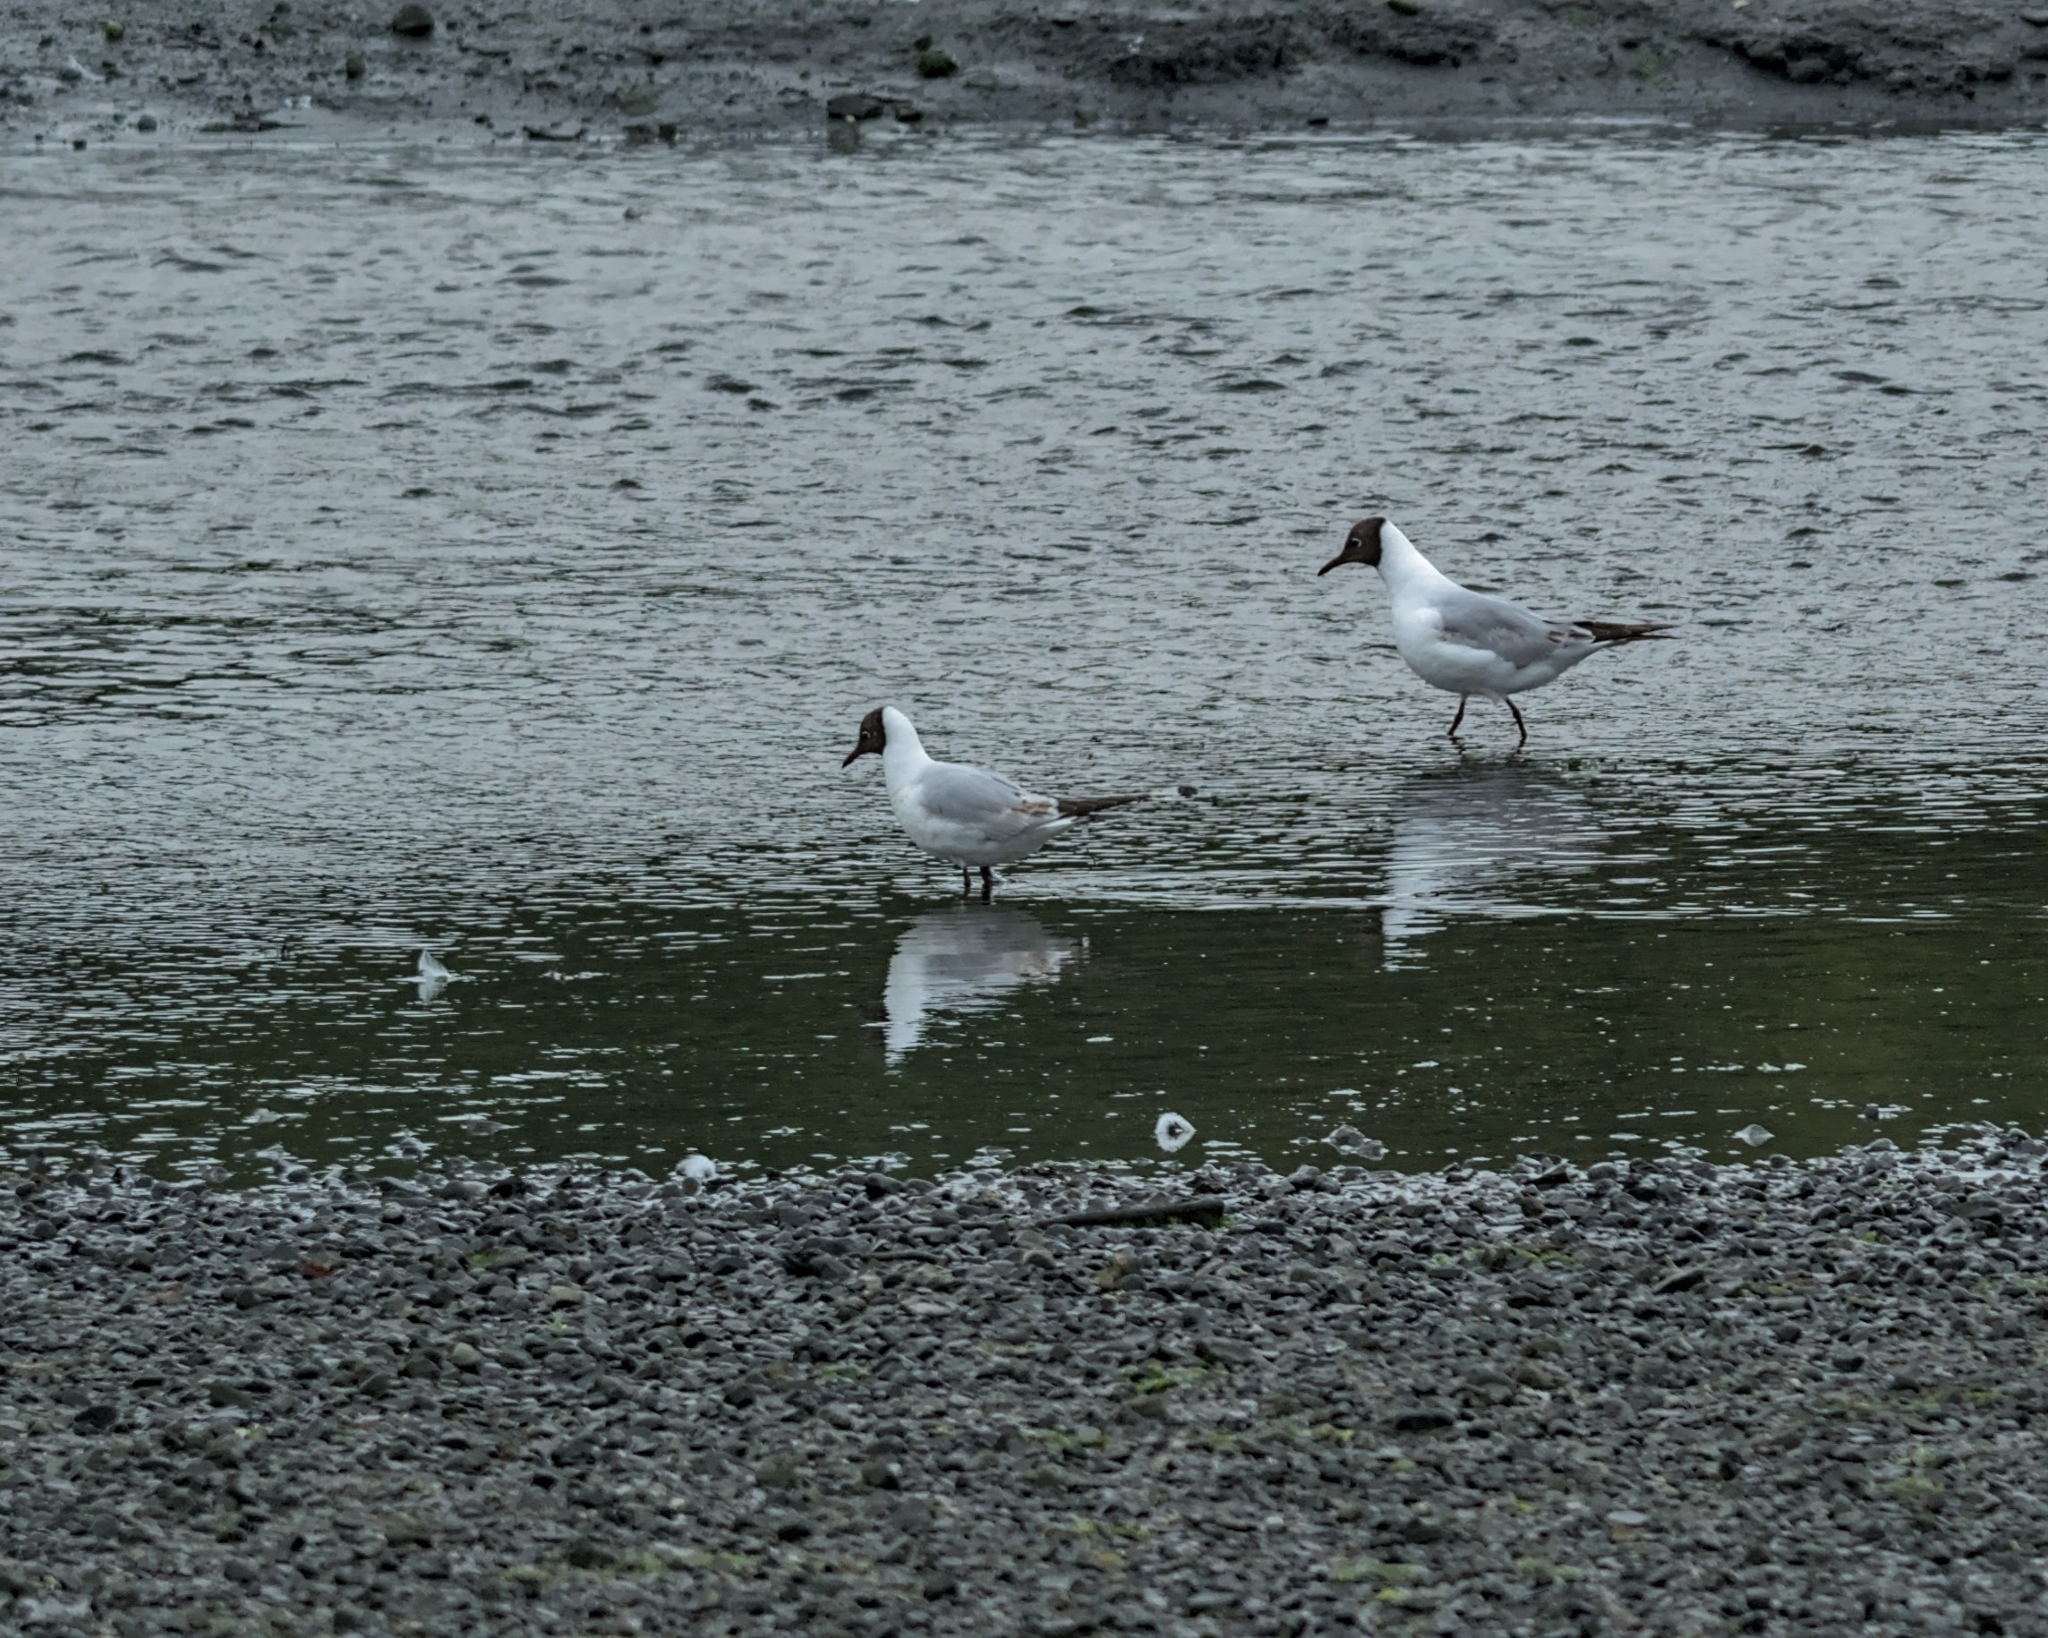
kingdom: Animalia
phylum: Chordata
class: Aves
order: Charadriiformes
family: Laridae
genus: Chroicocephalus
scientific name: Chroicocephalus ridibundus
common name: Black-headed gull
